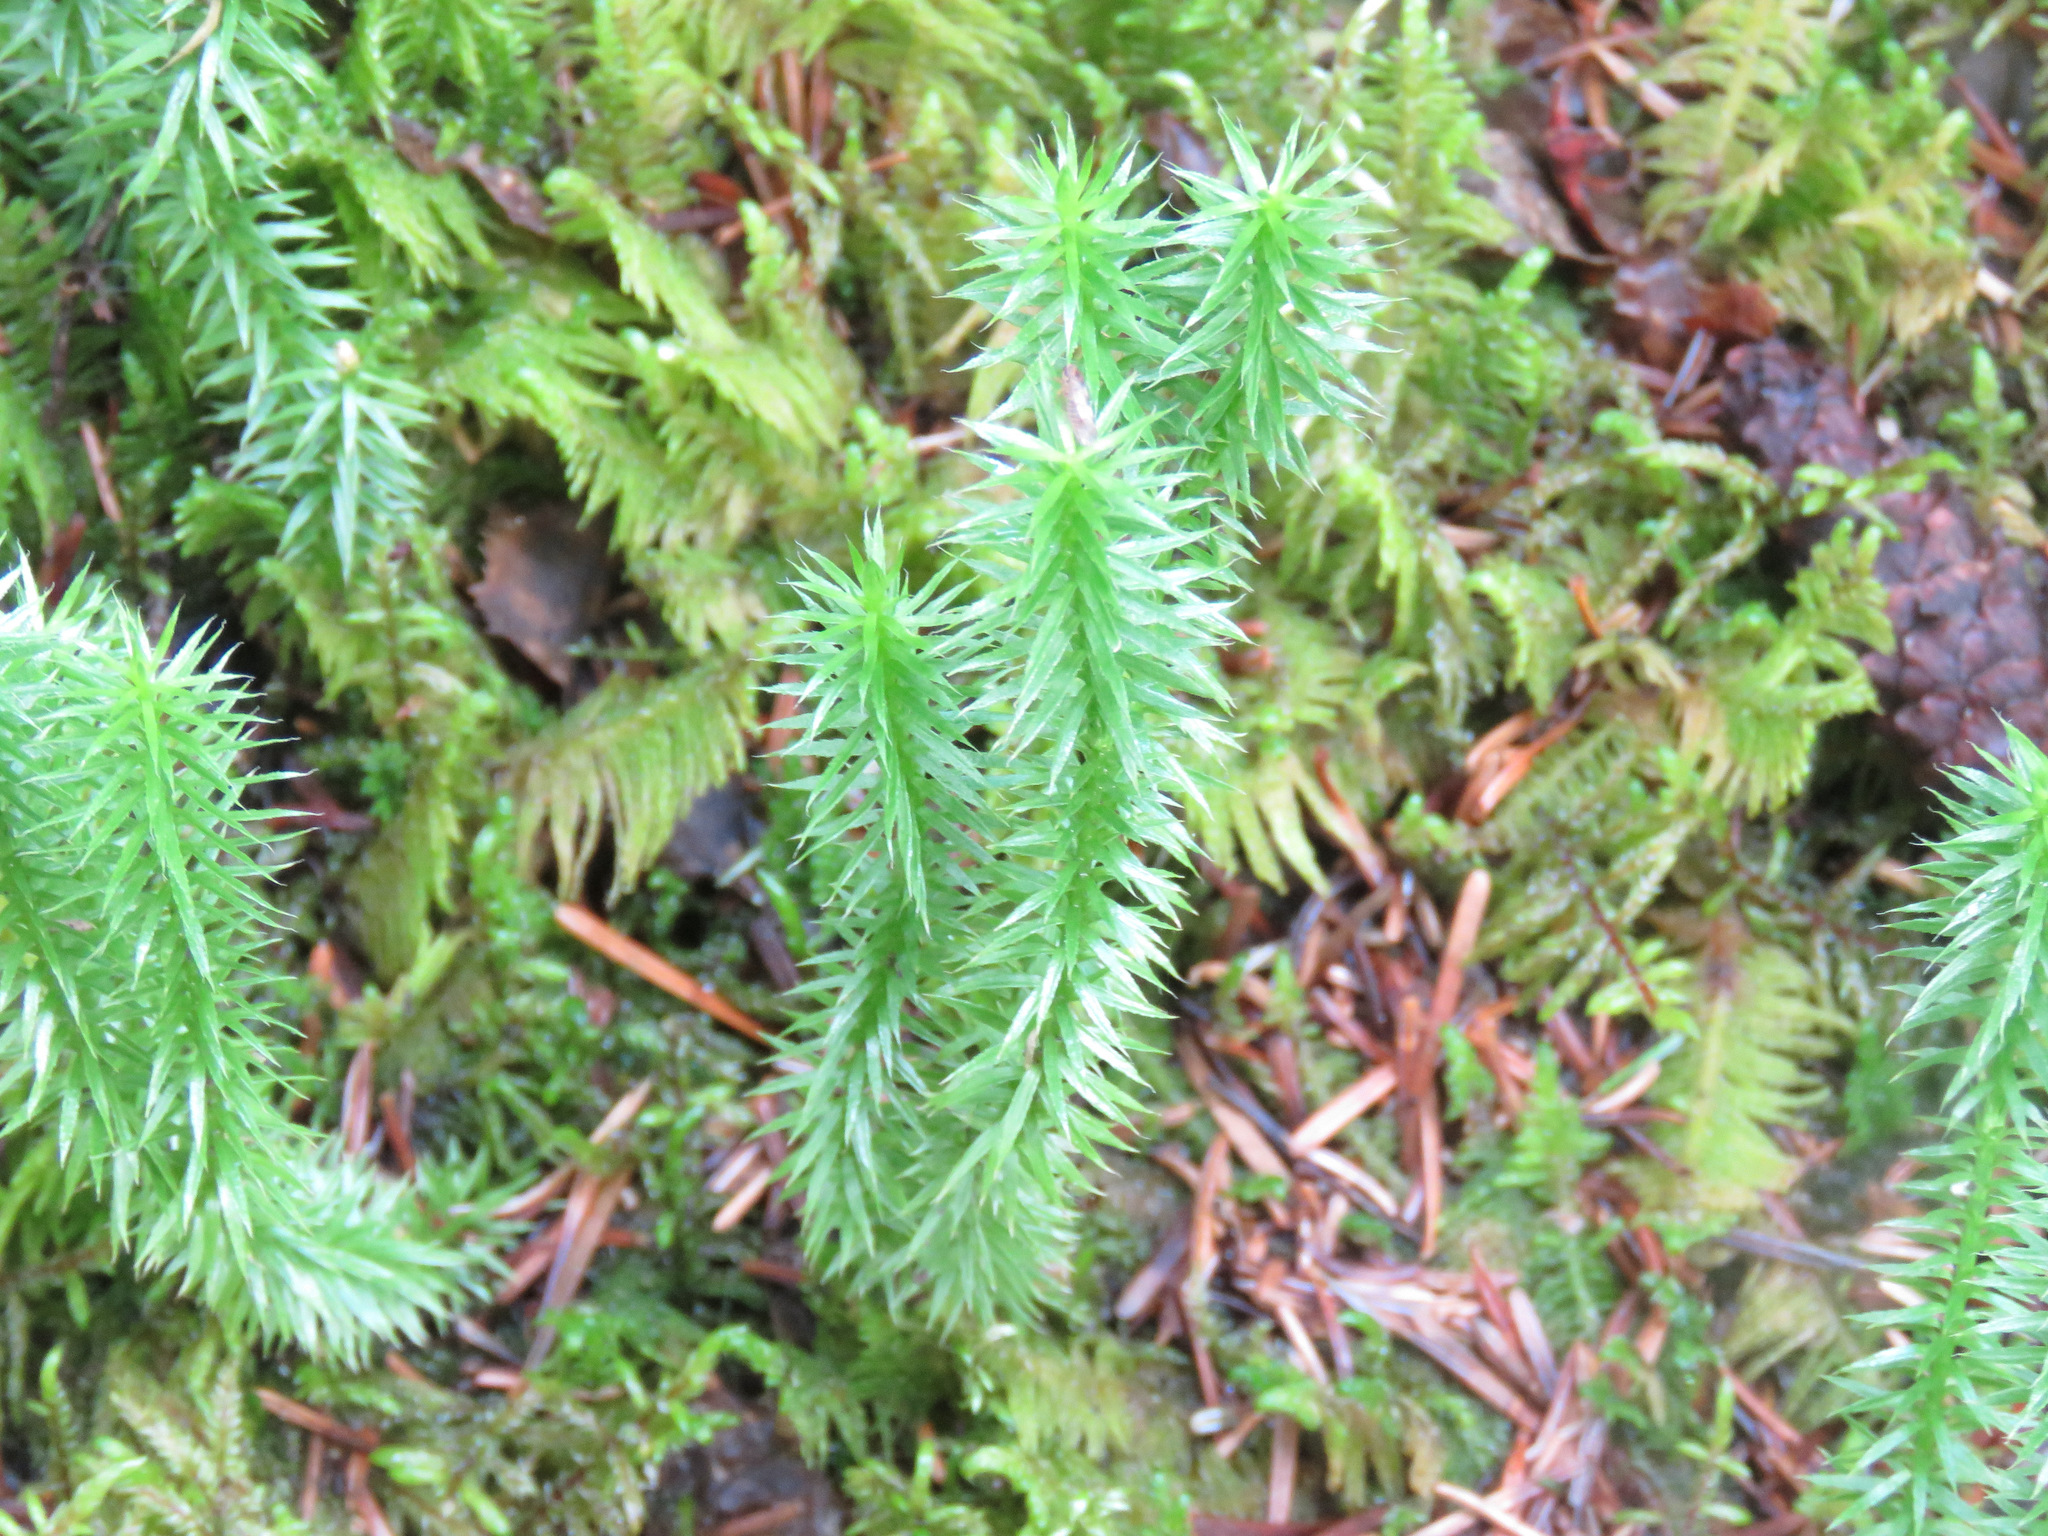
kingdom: Plantae
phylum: Tracheophyta
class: Lycopodiopsida
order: Lycopodiales
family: Lycopodiaceae
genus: Spinulum
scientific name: Spinulum annotinum
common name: Interrupted club-moss
